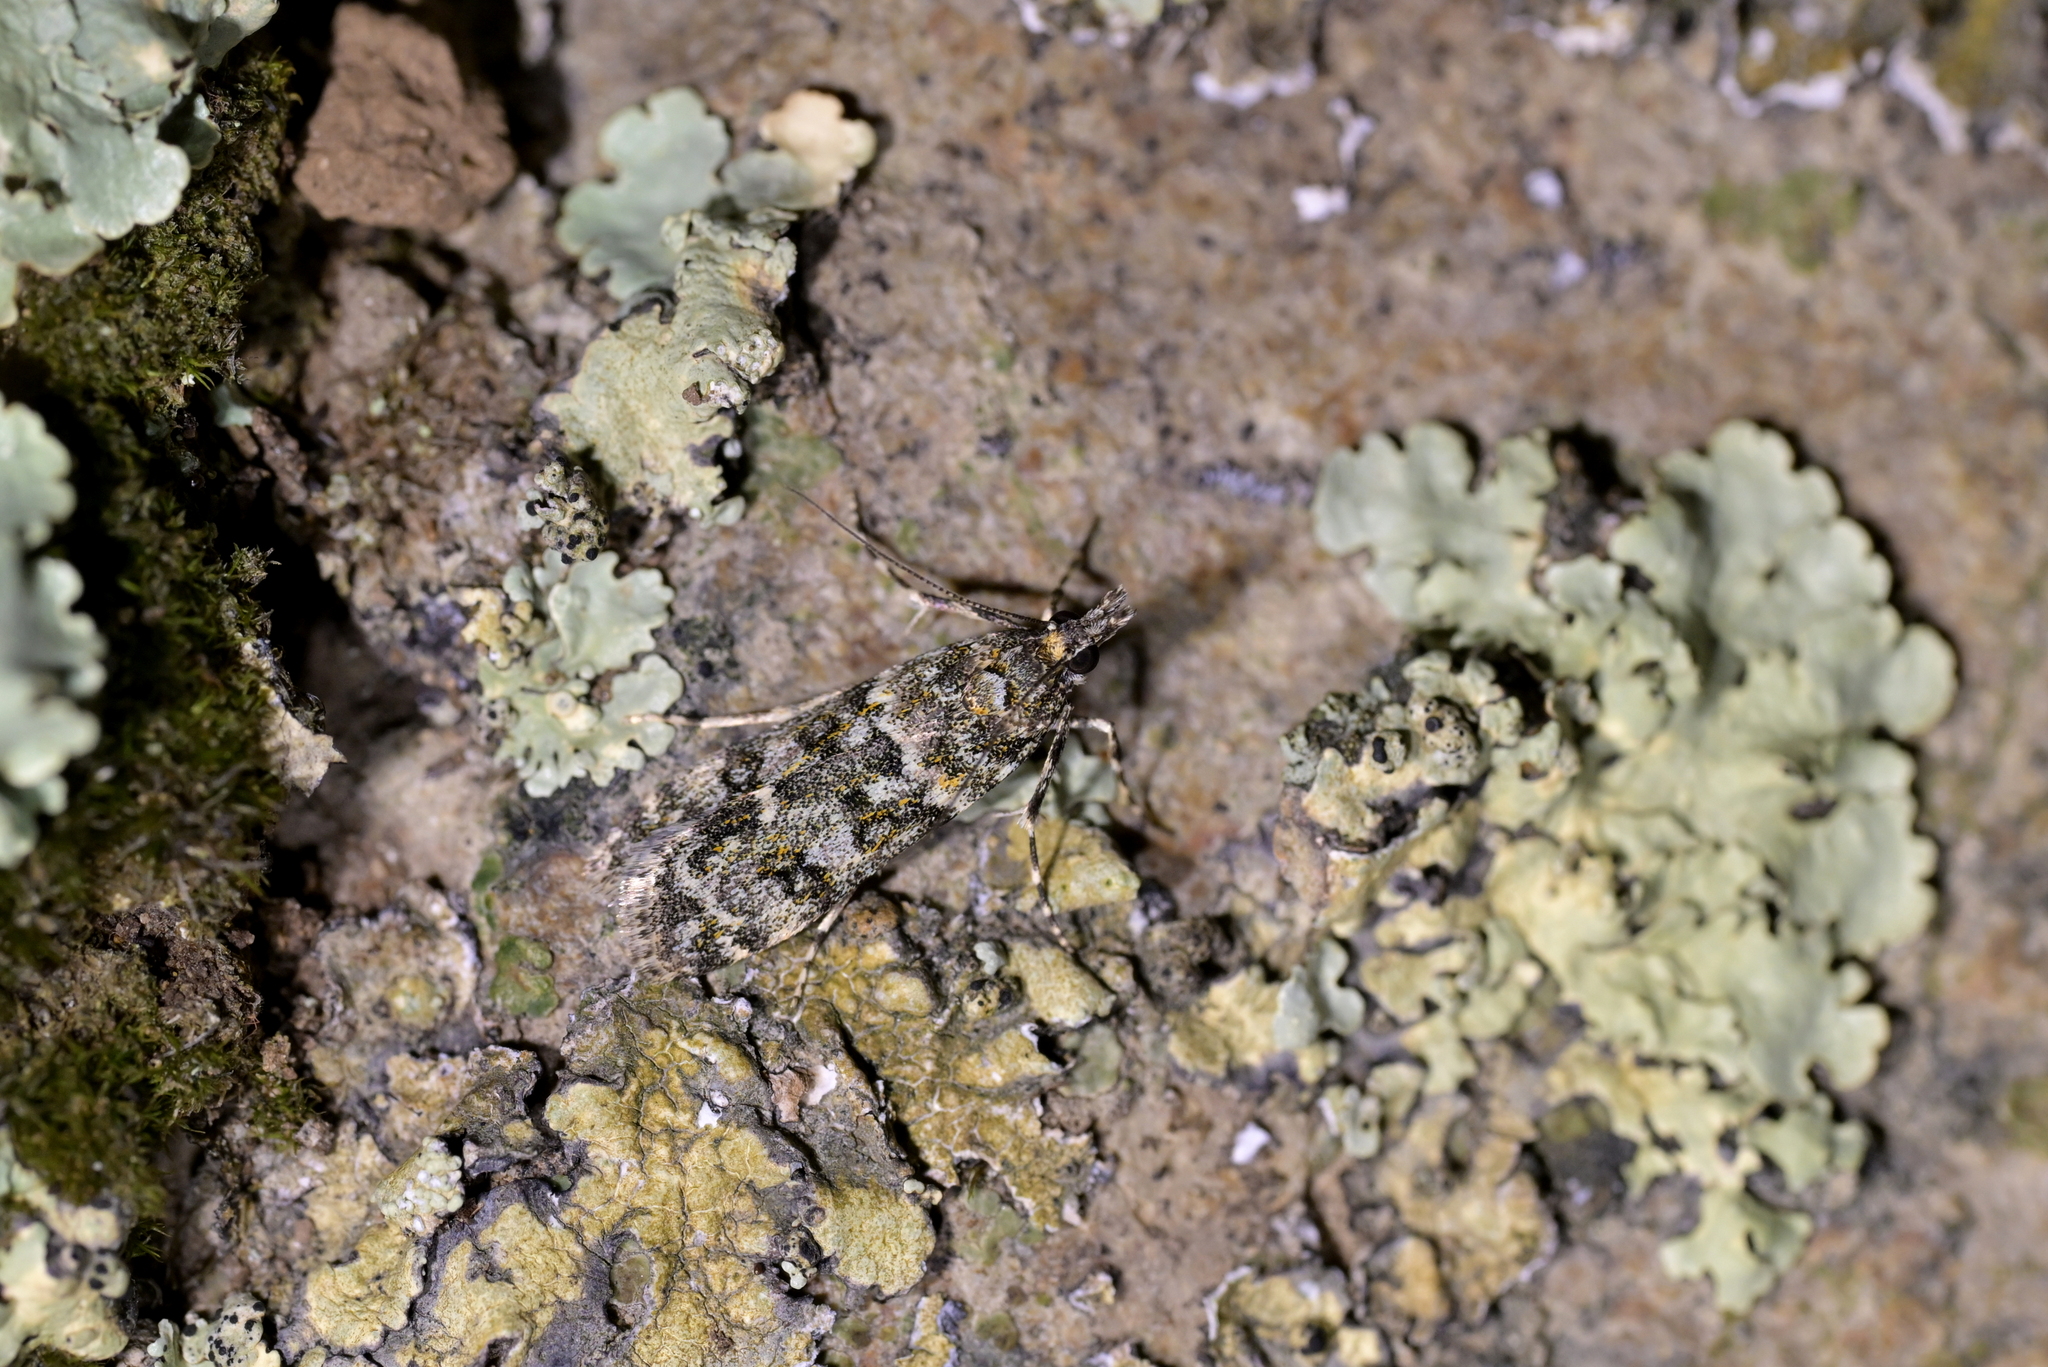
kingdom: Animalia
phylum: Arthropoda
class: Insecta
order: Lepidoptera
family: Crambidae
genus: Eudonia
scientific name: Eudonia
